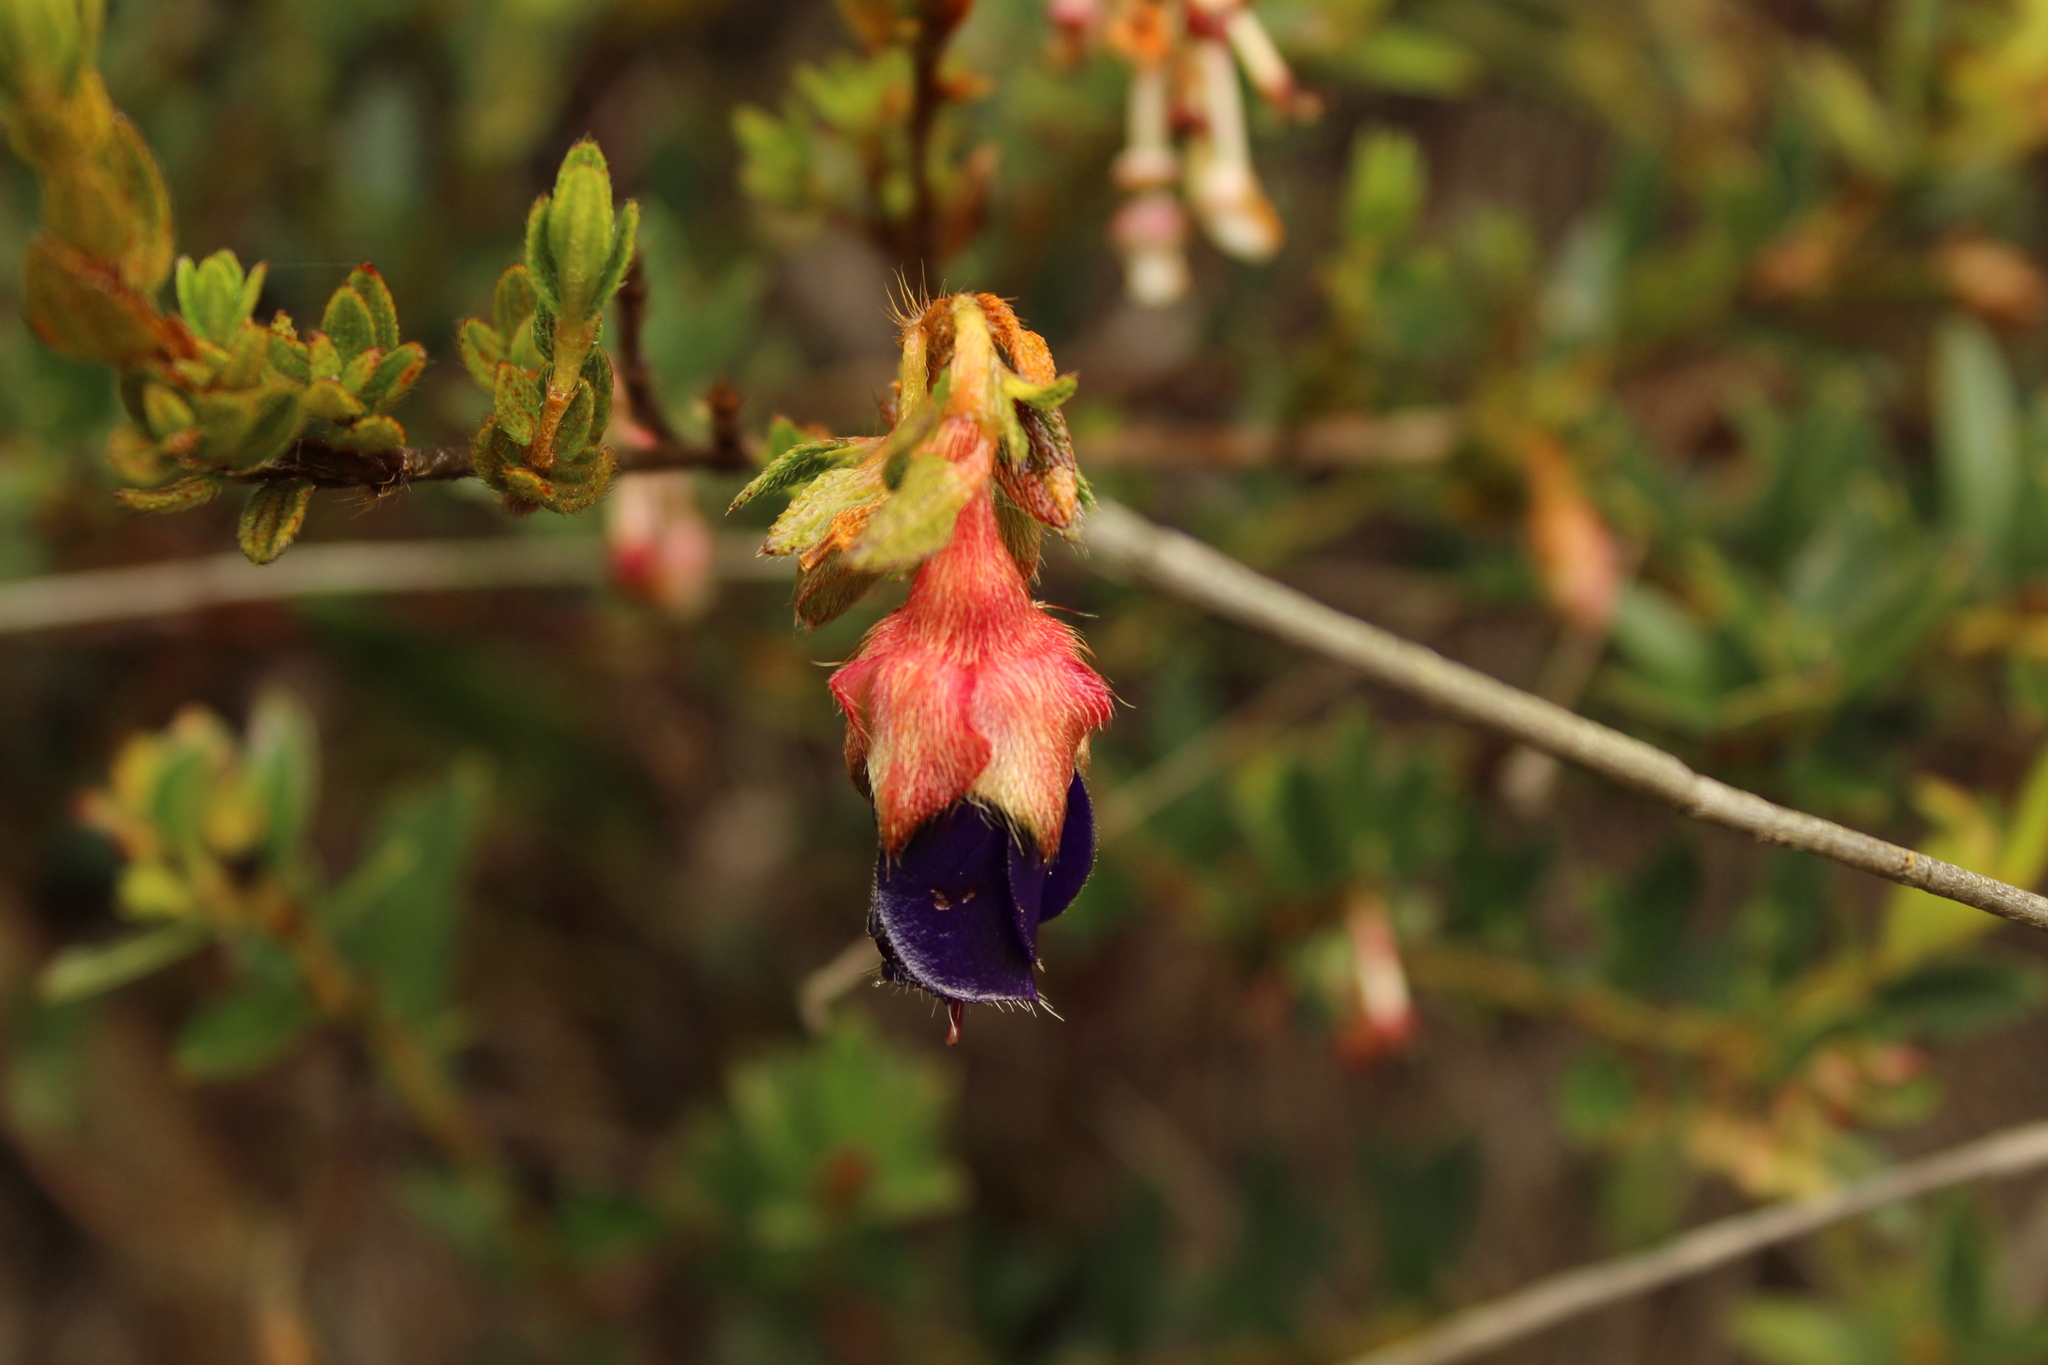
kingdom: Plantae
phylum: Tracheophyta
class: Magnoliopsida
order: Myrtales
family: Melastomataceae
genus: Brachyotum
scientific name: Brachyotum strigosum
